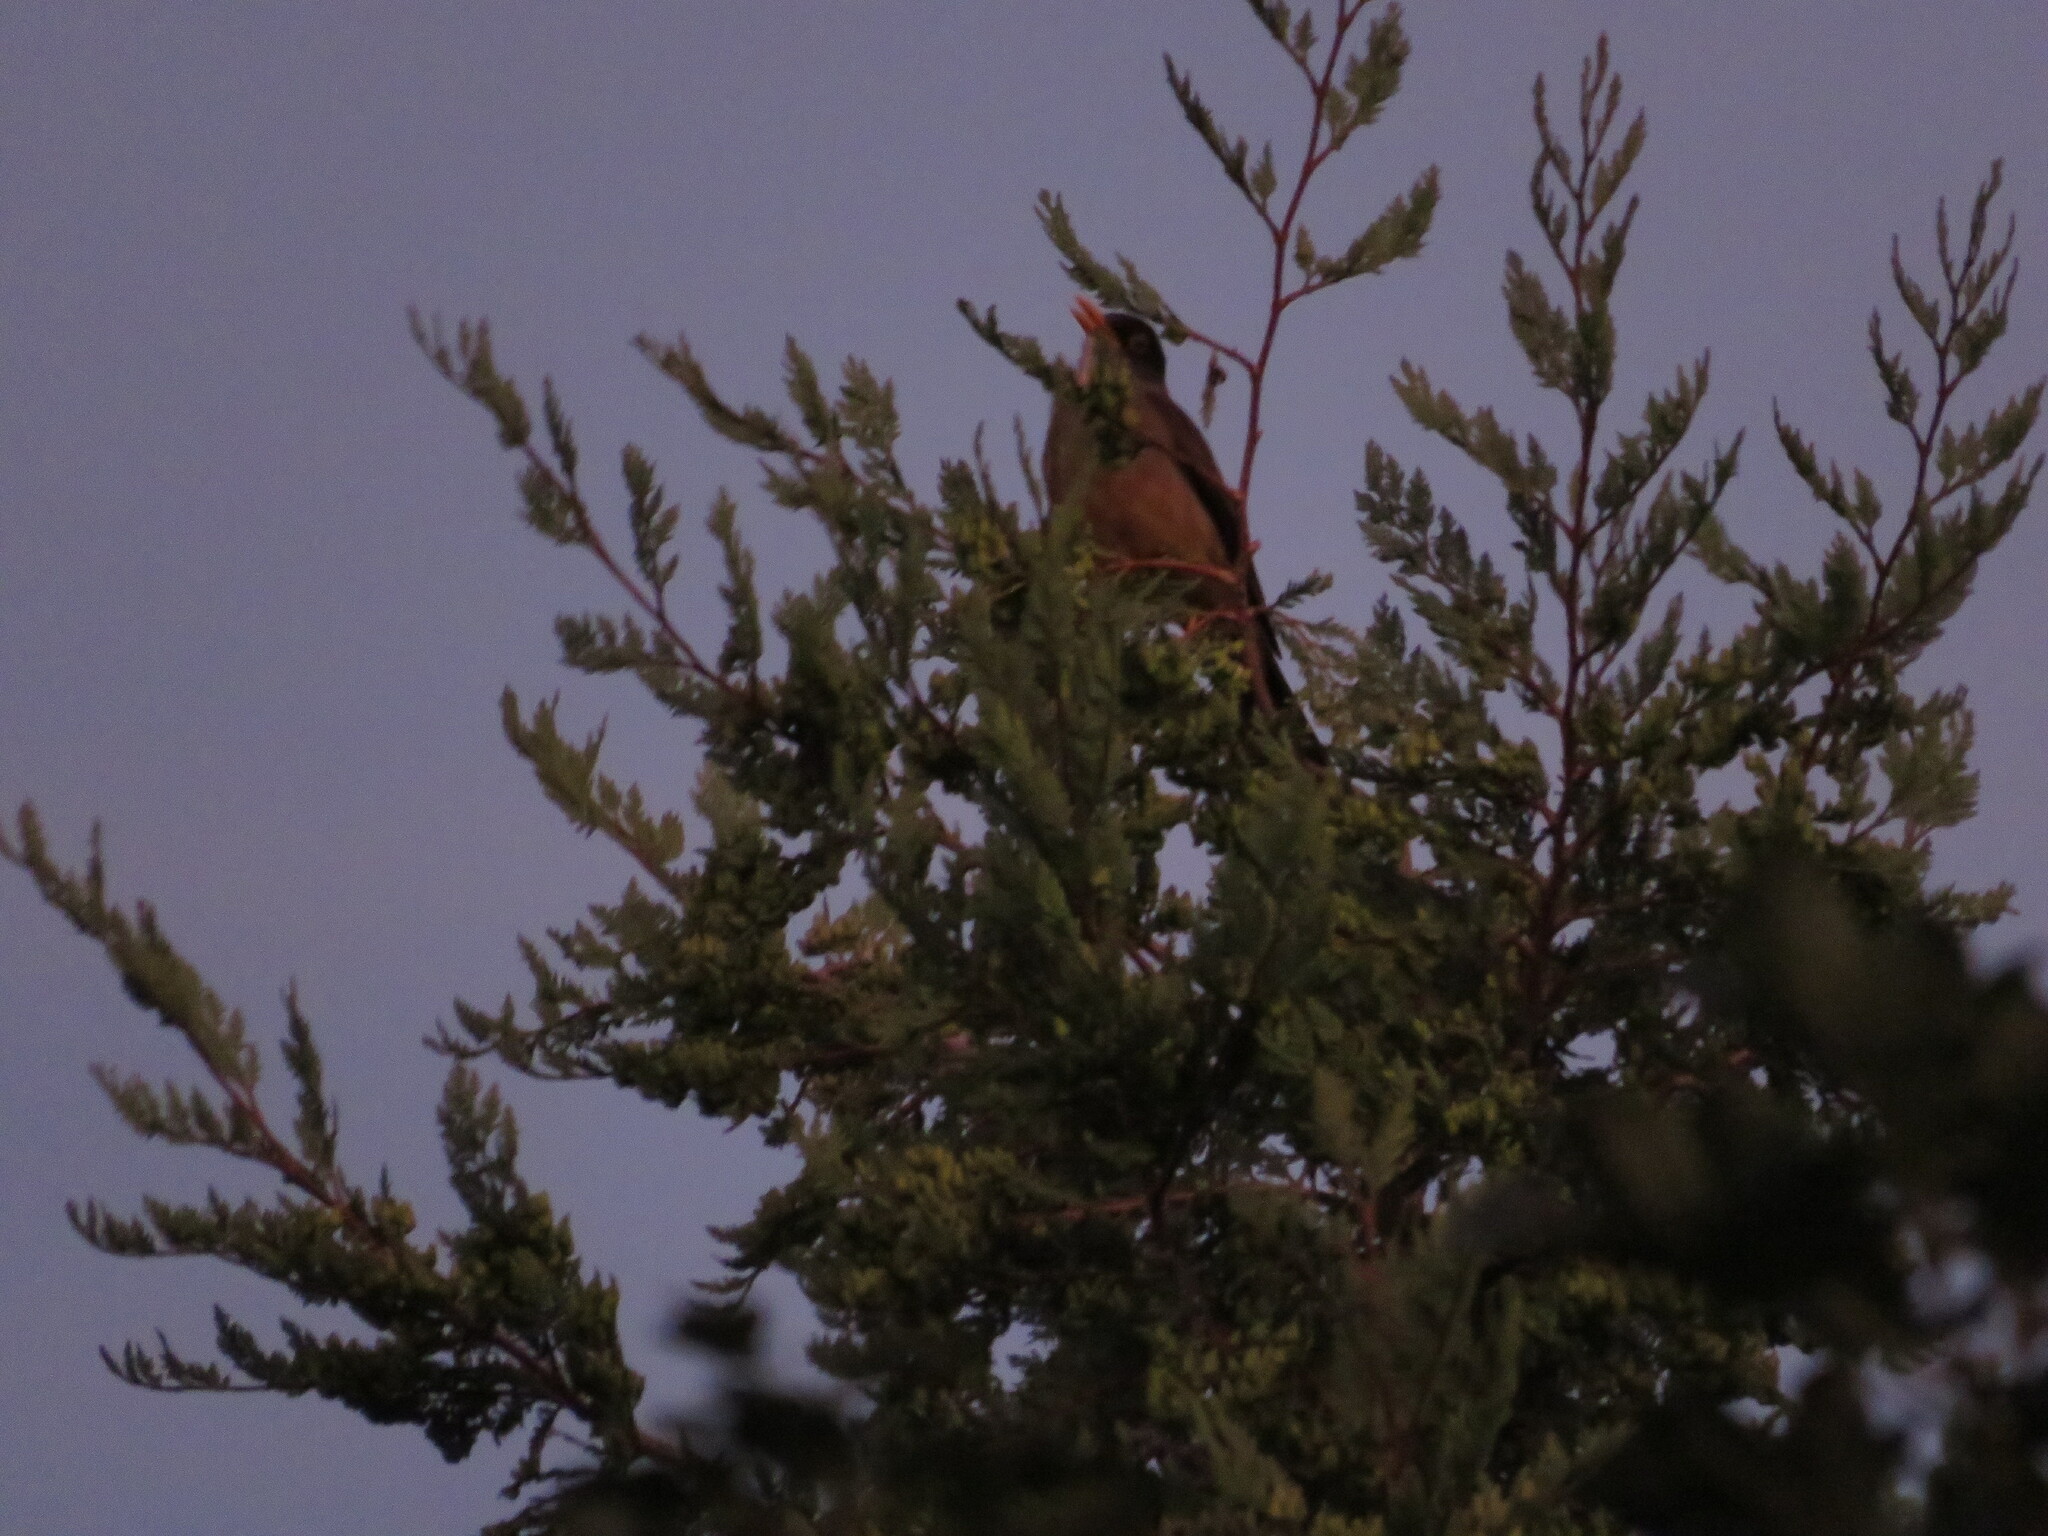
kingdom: Animalia
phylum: Chordata
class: Aves
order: Passeriformes
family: Turdidae
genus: Turdus
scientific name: Turdus falcklandii
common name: Austral thrush
